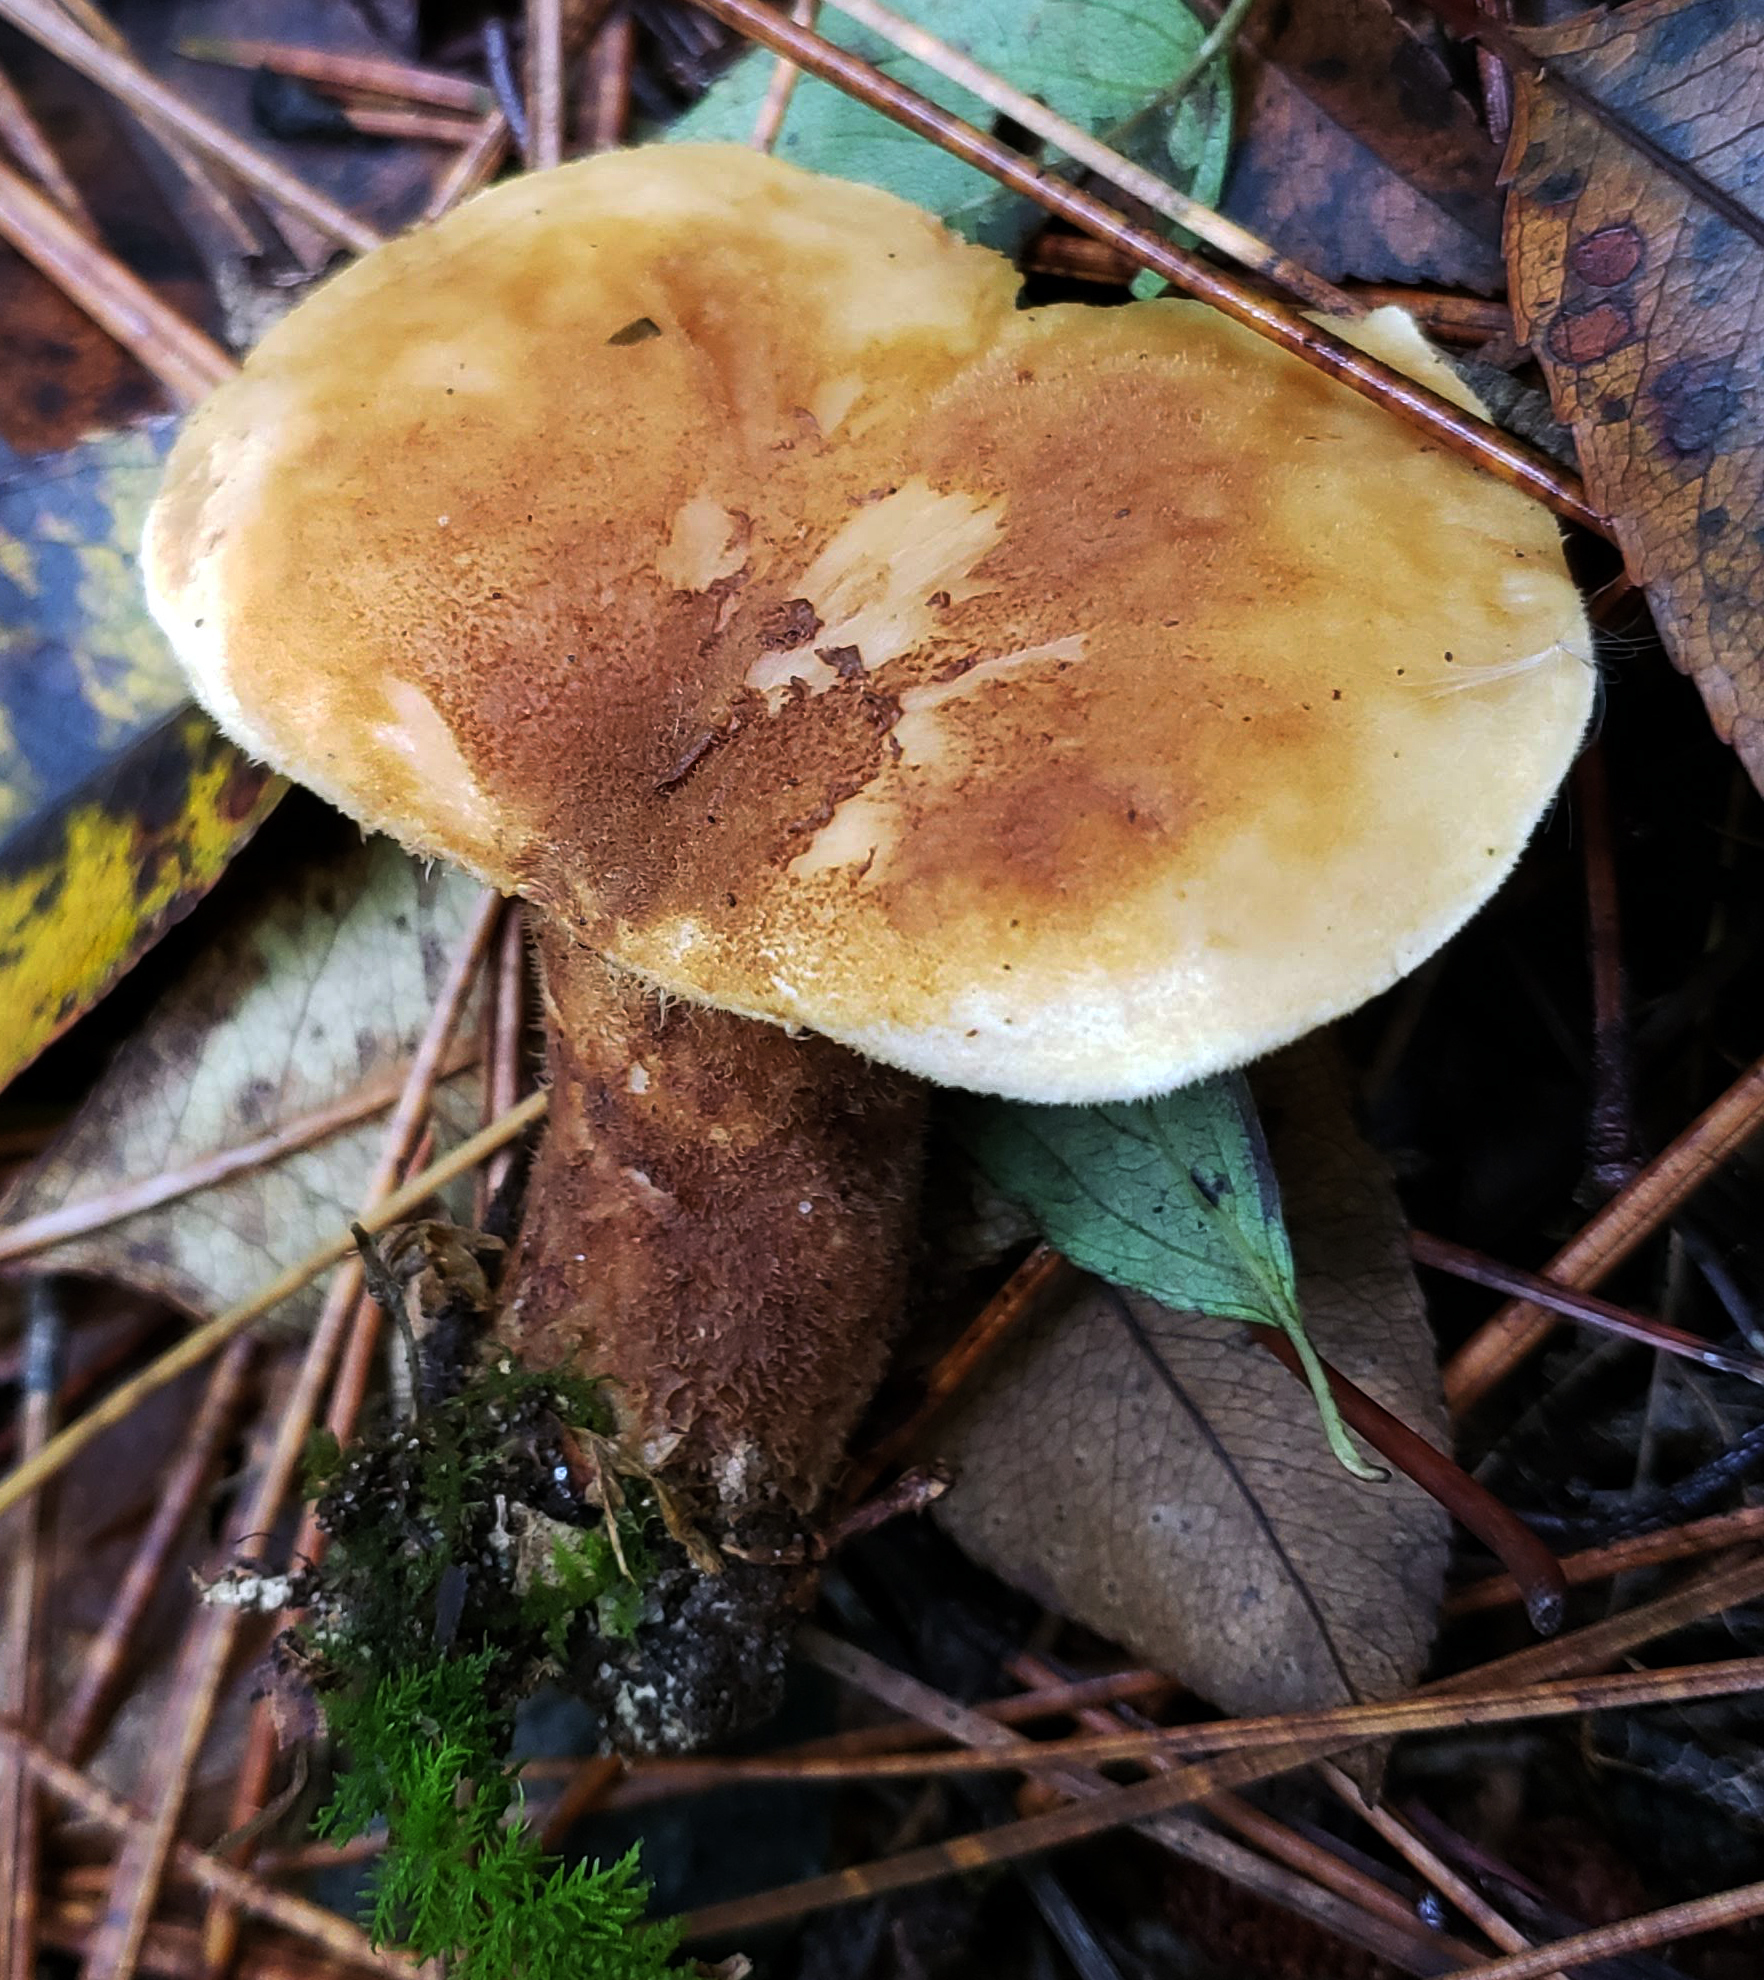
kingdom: Fungi
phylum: Basidiomycota
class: Agaricomycetes
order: Boletales
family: Tapinellaceae
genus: Tapinella
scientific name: Tapinella atrotomentosa
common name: Velvet rollrim
